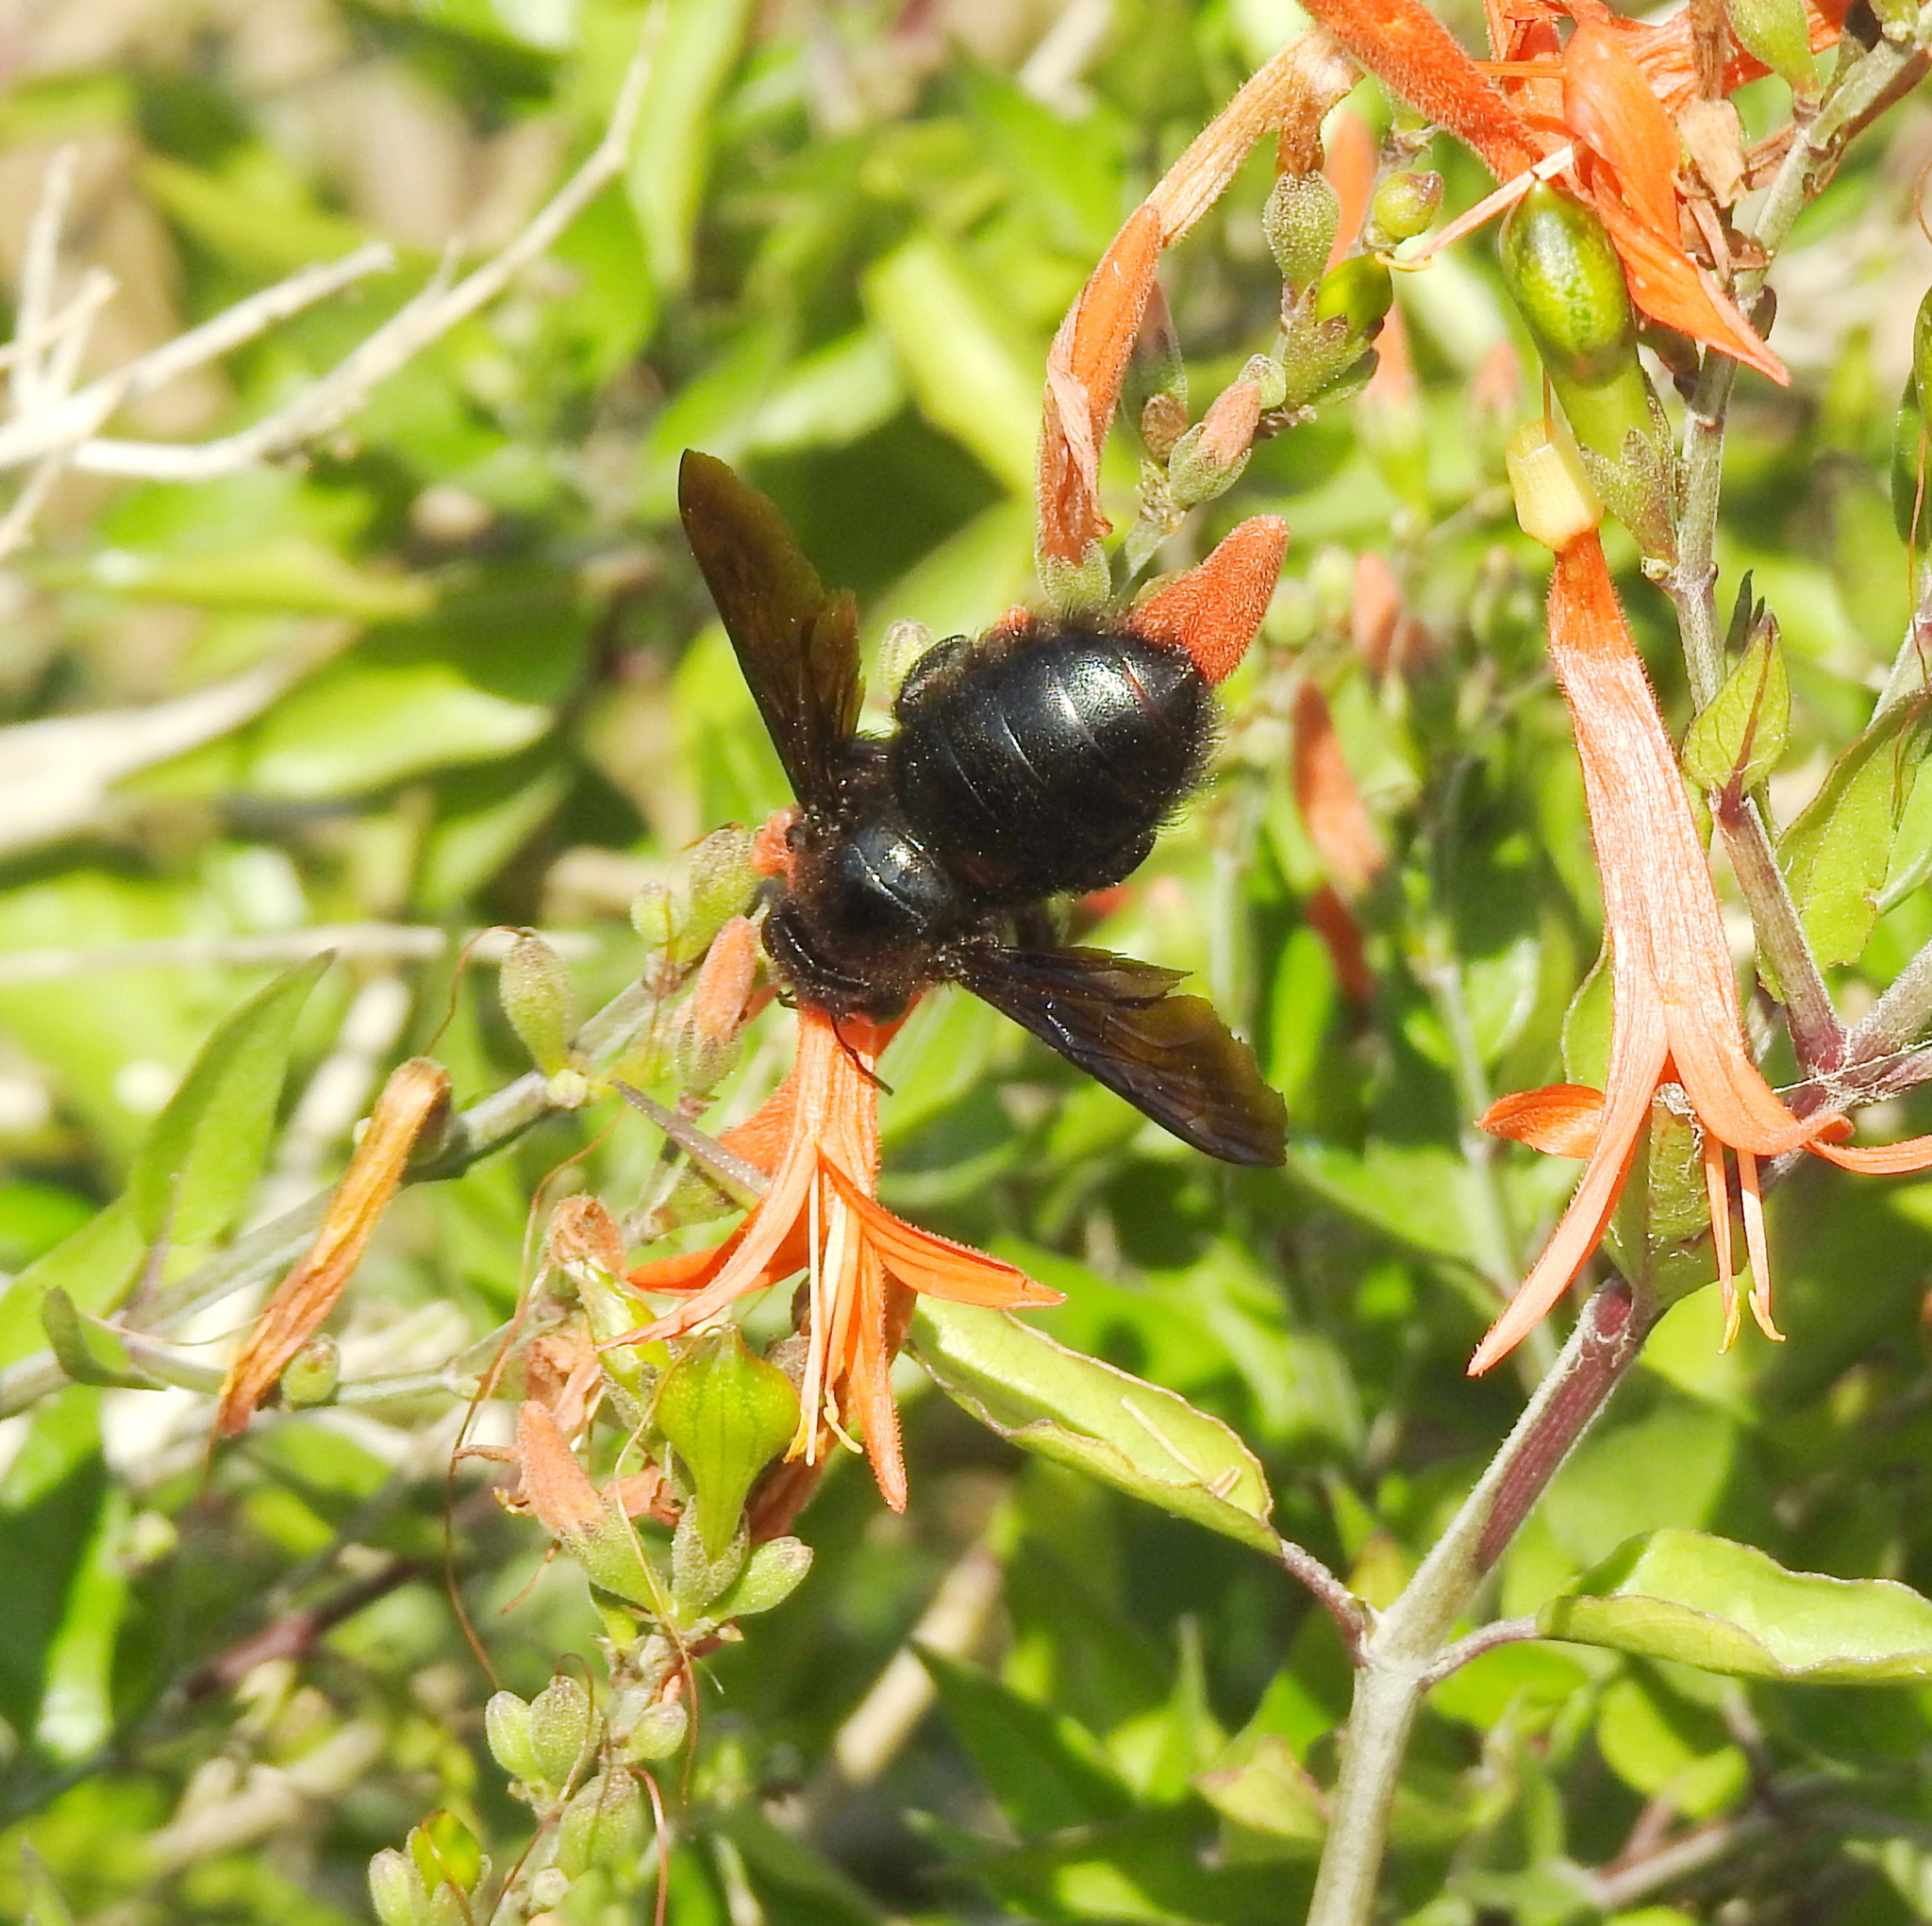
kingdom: Animalia
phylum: Arthropoda
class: Insecta
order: Hymenoptera
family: Apidae
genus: Xylocopa
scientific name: Xylocopa strandi
